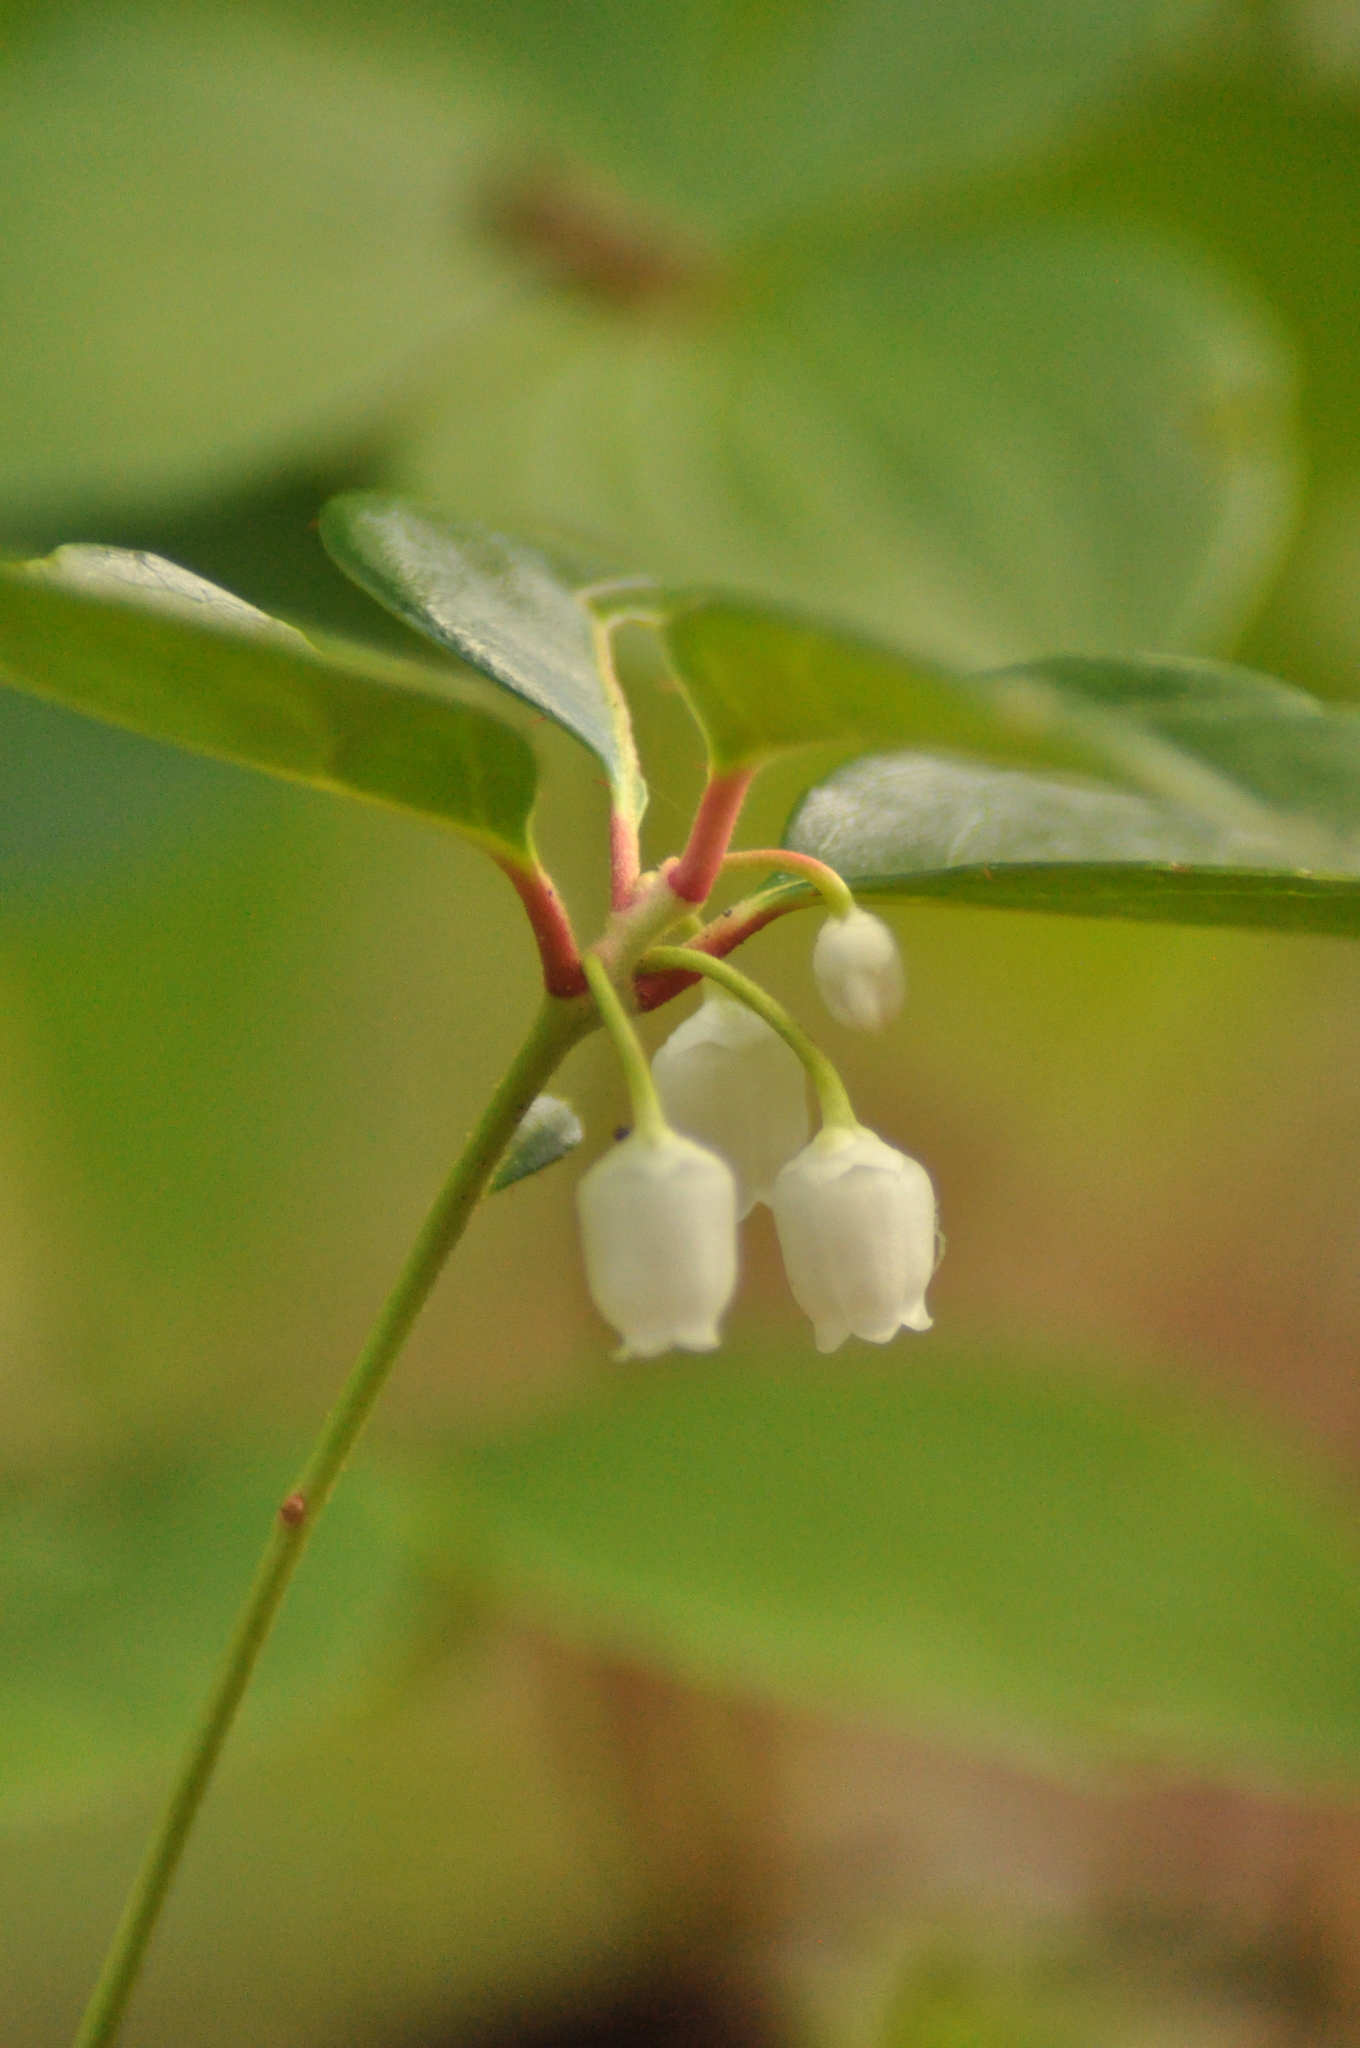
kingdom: Plantae
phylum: Tracheophyta
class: Magnoliopsida
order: Ericales
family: Ericaceae
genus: Gaultheria
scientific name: Gaultheria procumbens
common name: Checkerberry
